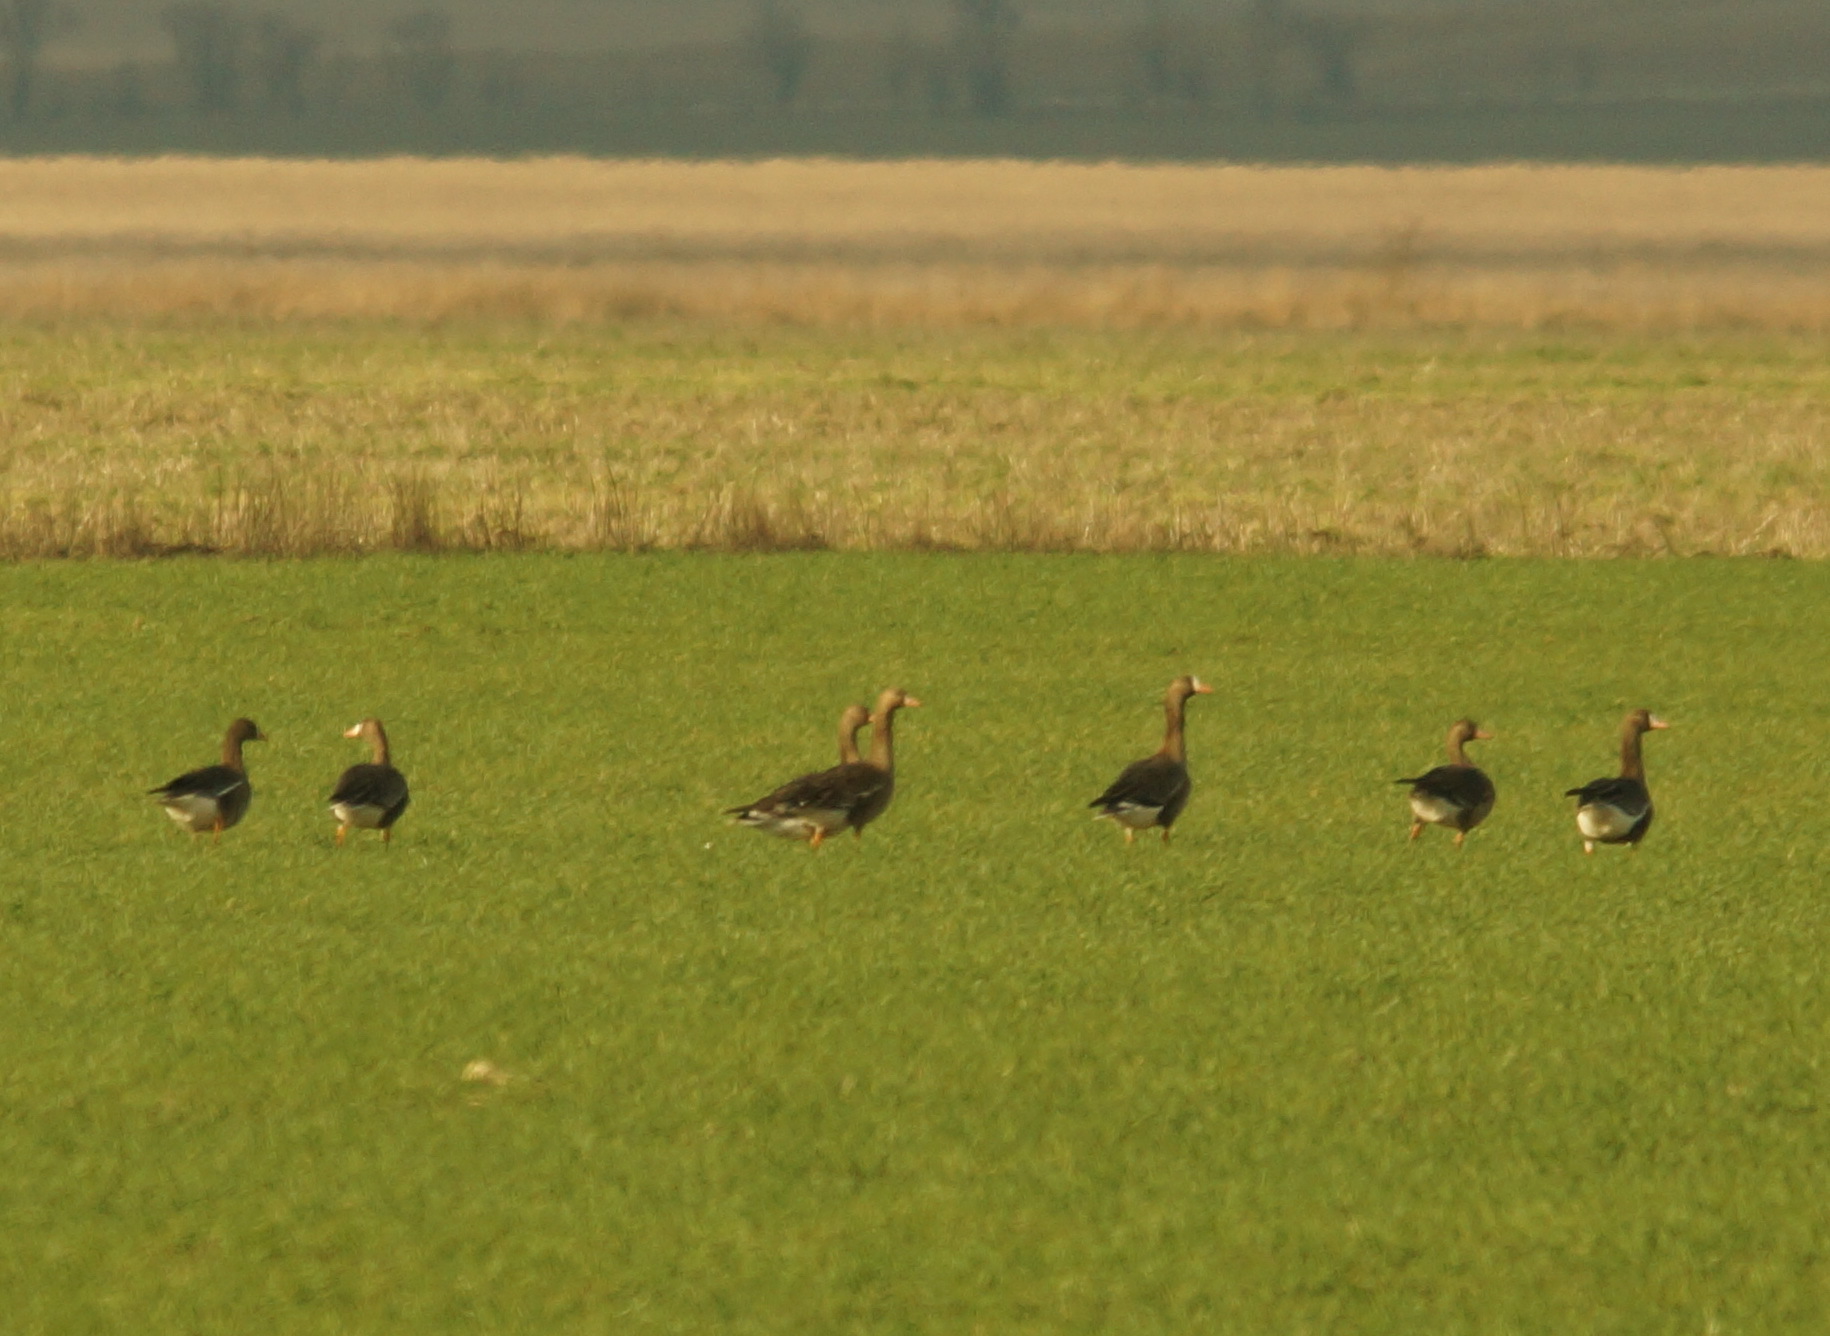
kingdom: Animalia
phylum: Chordata
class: Aves
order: Anseriformes
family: Anatidae
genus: Anser
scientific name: Anser albifrons
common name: Greater white-fronted goose
